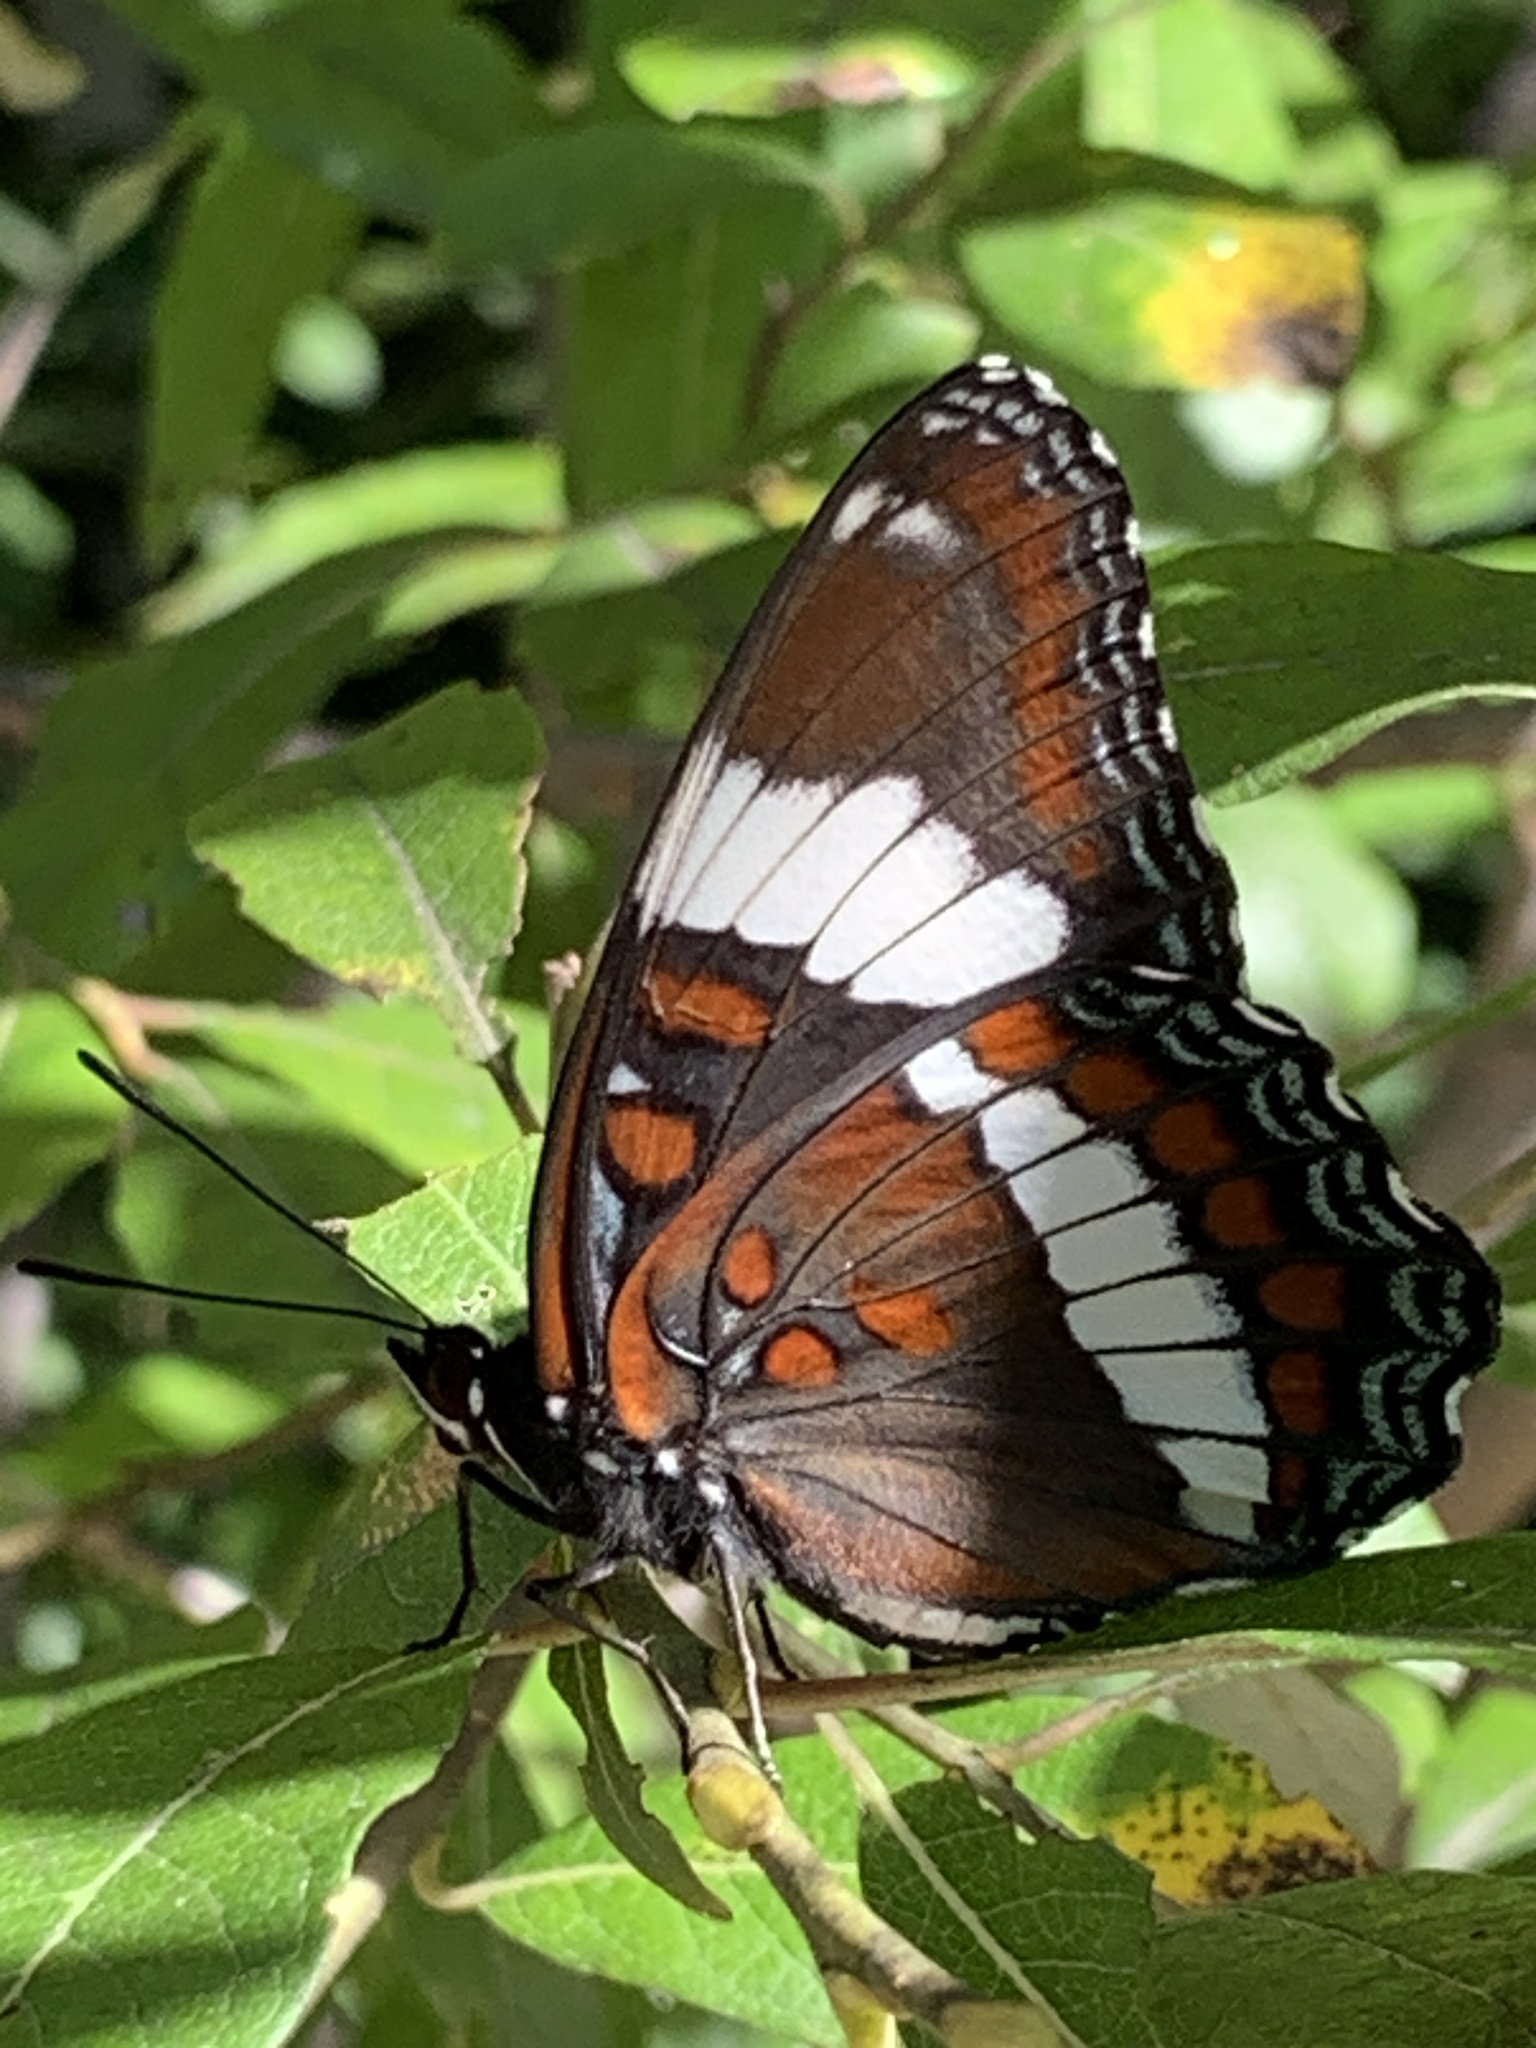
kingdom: Animalia
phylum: Arthropoda
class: Insecta
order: Lepidoptera
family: Nymphalidae
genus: Limenitis
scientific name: Limenitis arthemis
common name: Red-spotted admiral
